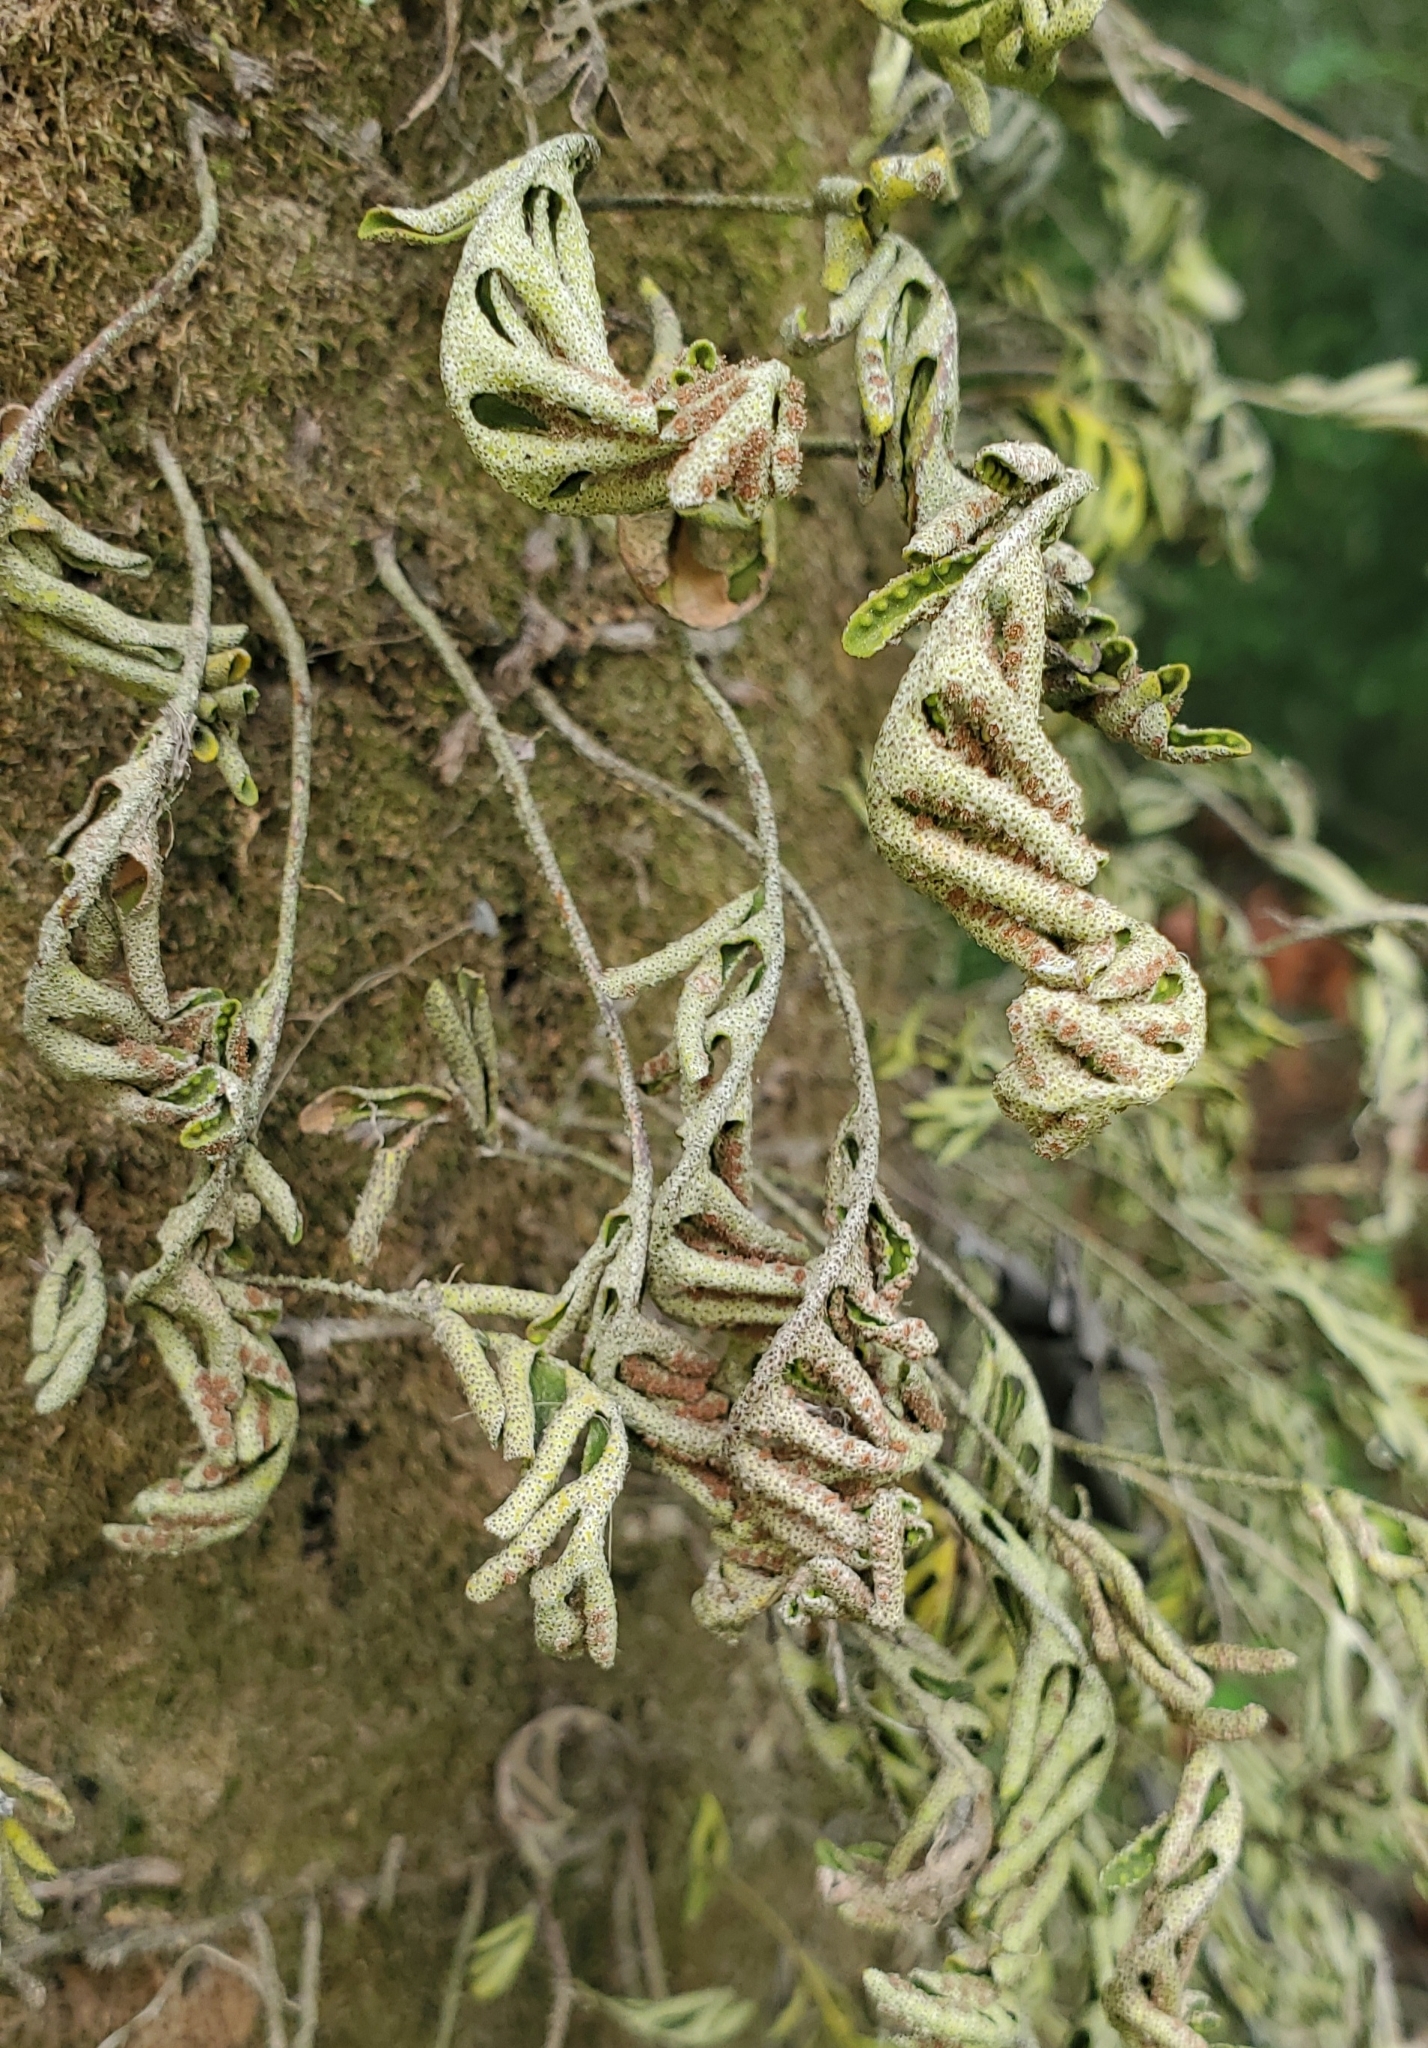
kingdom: Plantae
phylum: Tracheophyta
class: Polypodiopsida
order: Polypodiales
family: Polypodiaceae
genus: Pleopeltis
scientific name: Pleopeltis michauxiana
